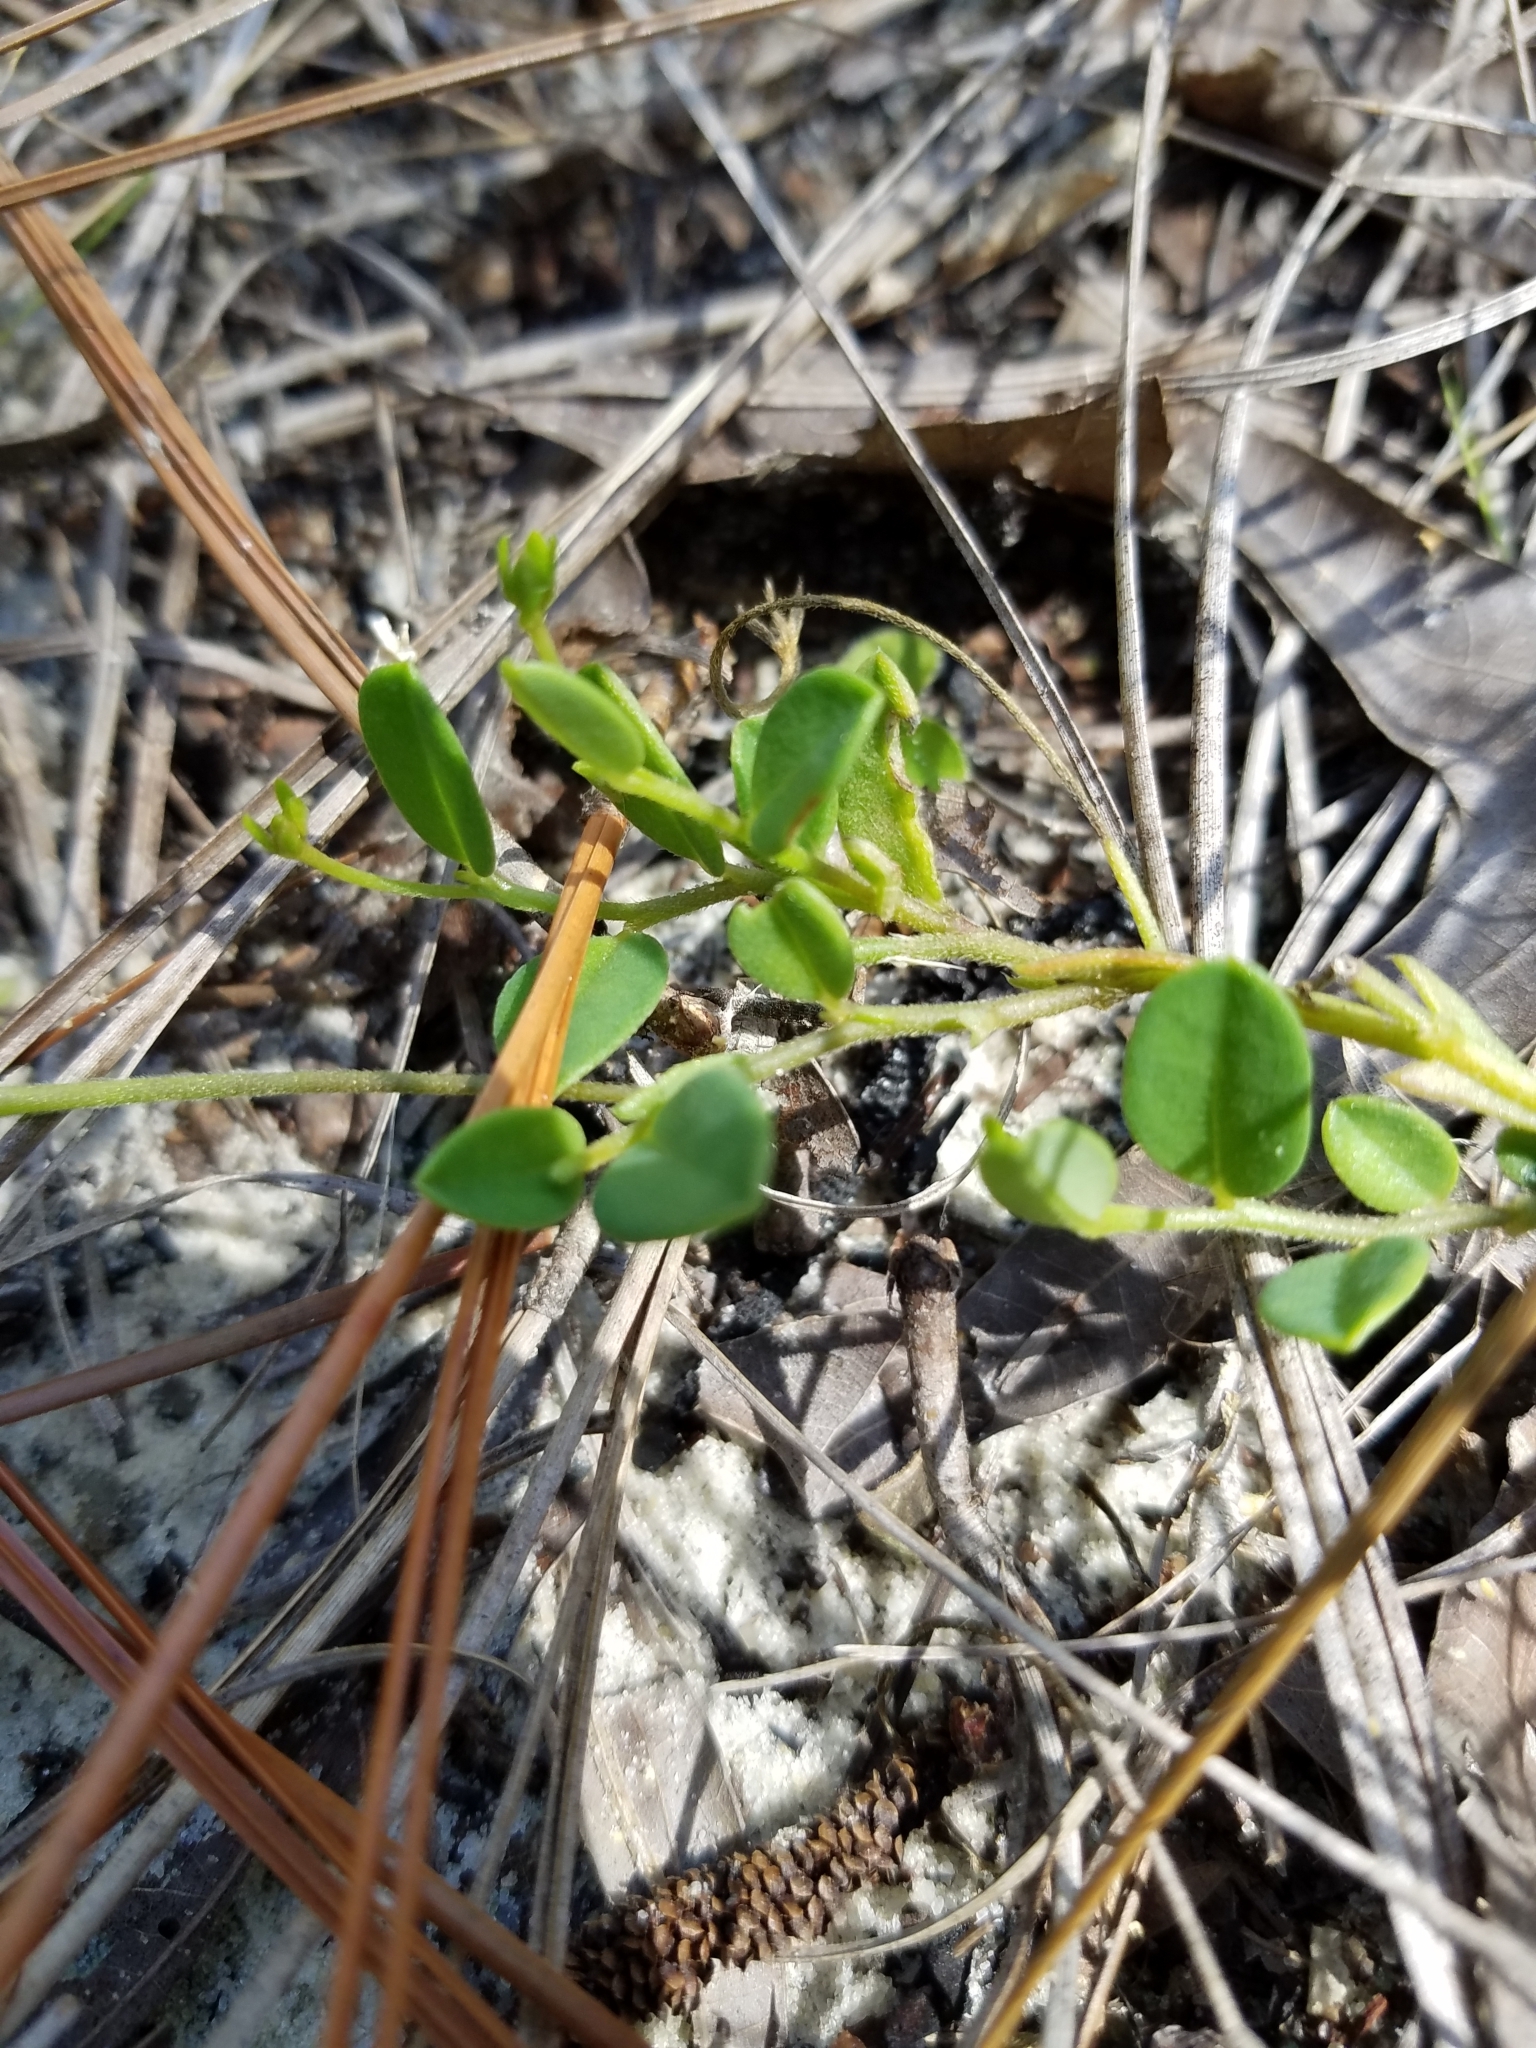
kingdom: Plantae
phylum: Tracheophyta
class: Magnoliopsida
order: Fabales
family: Fabaceae
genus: Crotalaria
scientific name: Crotalaria rotundifolia
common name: Prostrate rattlebox
